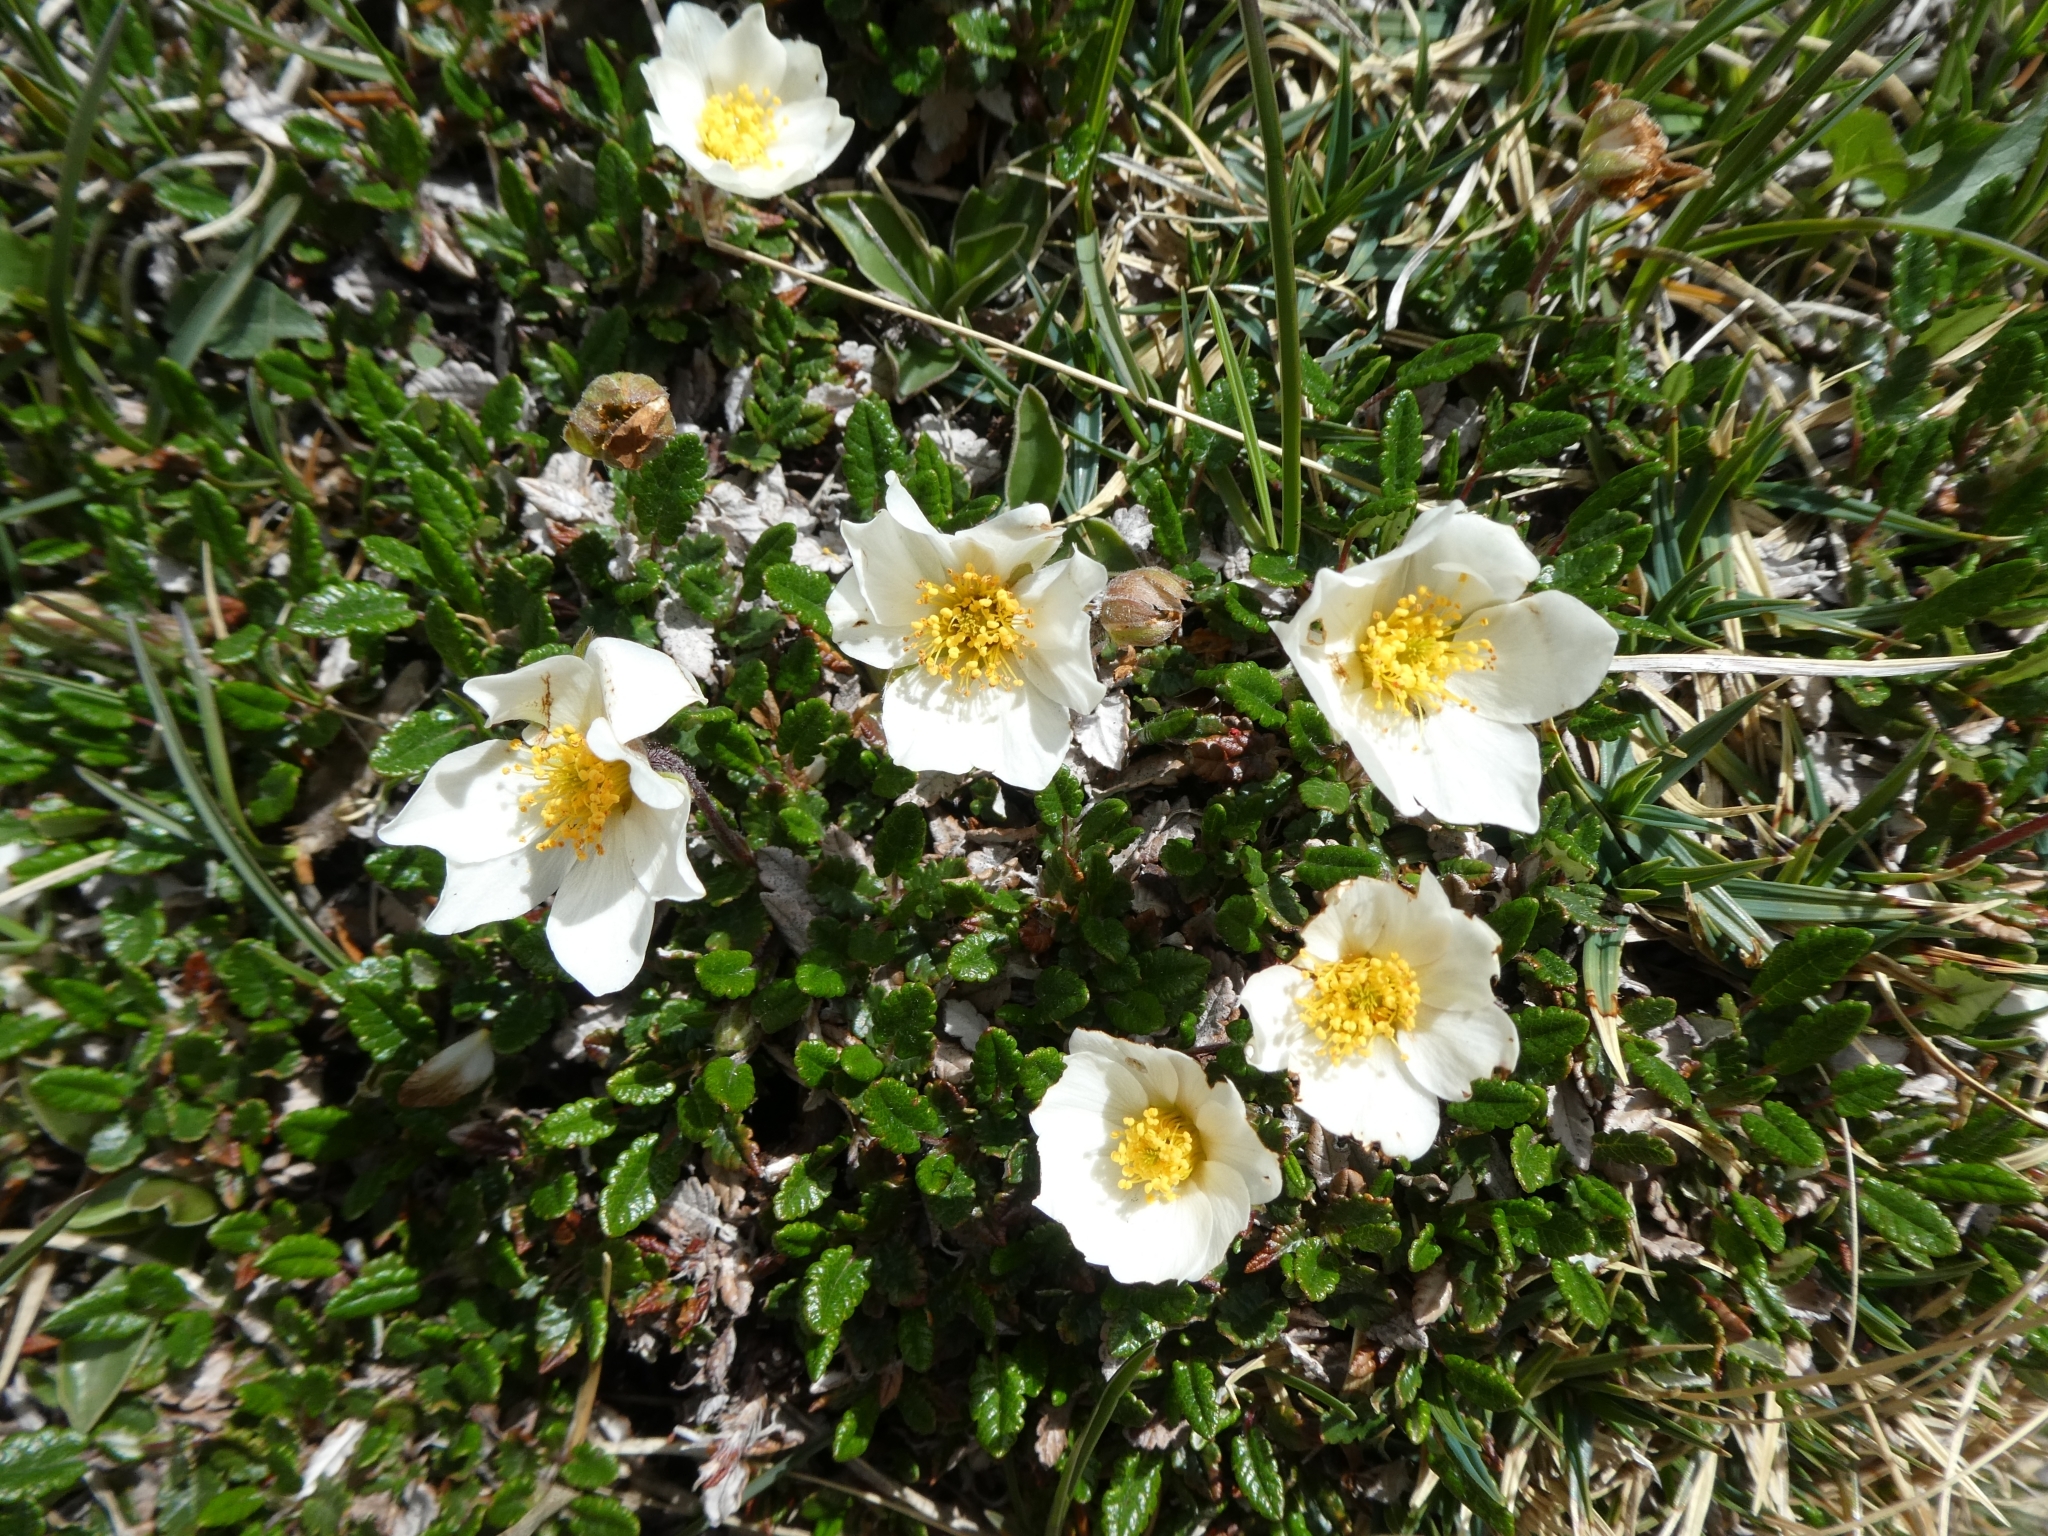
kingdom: Plantae
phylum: Tracheophyta
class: Magnoliopsida
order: Rosales
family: Rosaceae
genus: Dryas
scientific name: Dryas octopetala
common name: Eight-petal mountain-avens
